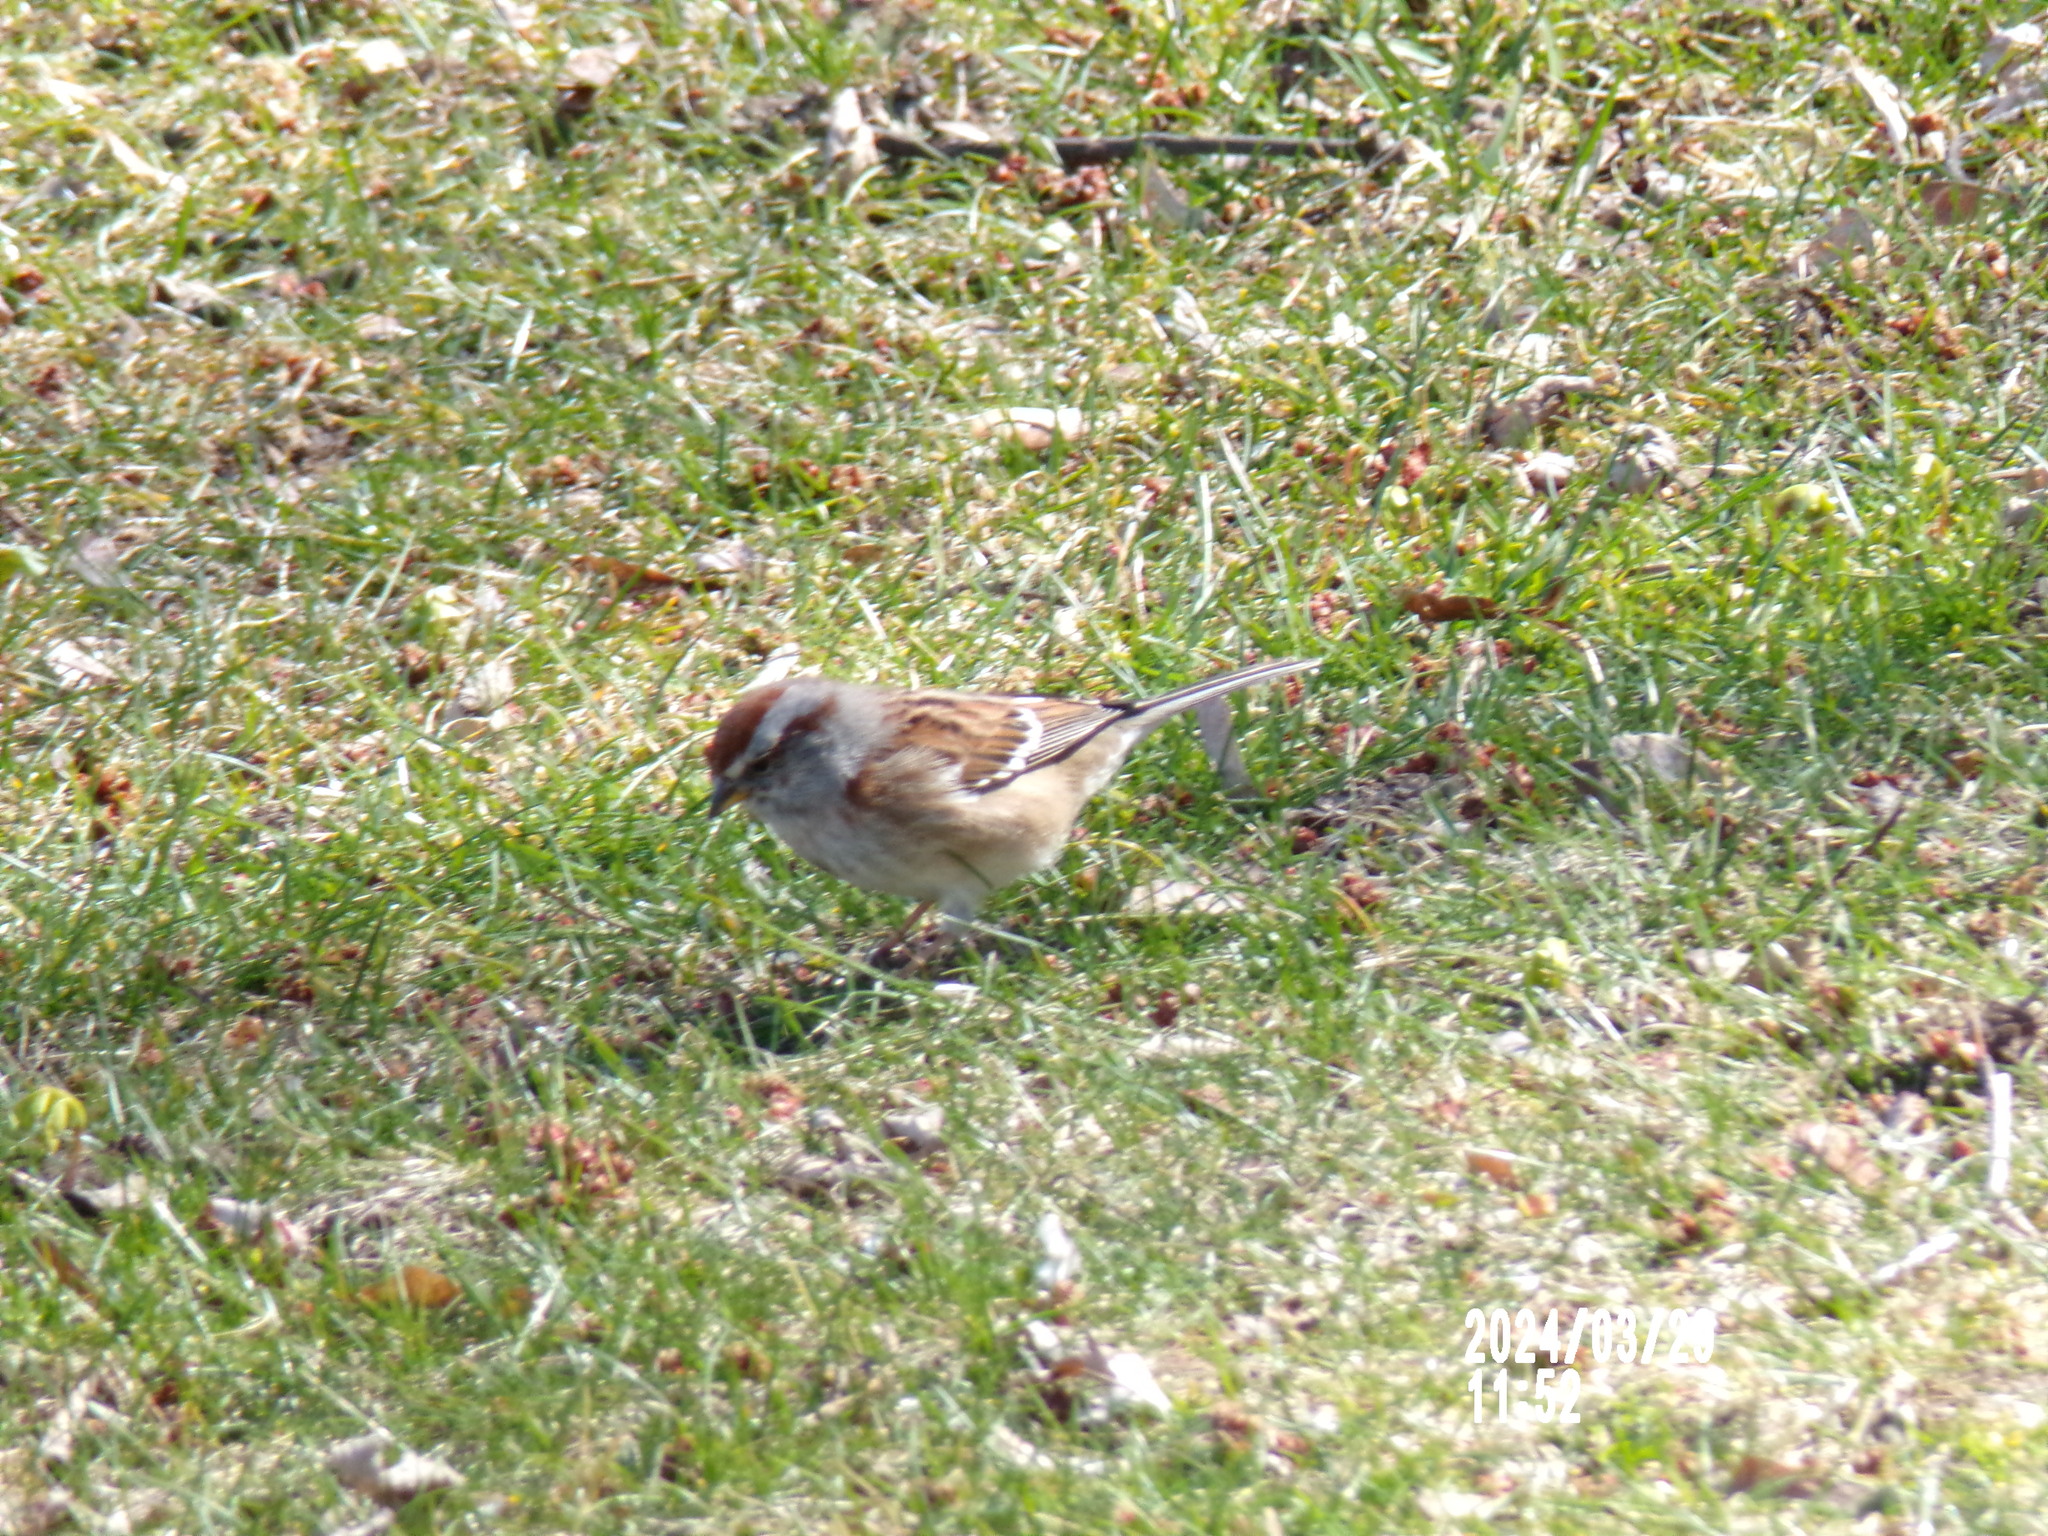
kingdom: Animalia
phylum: Chordata
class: Aves
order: Passeriformes
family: Passerellidae
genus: Spizelloides
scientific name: Spizelloides arborea
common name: American tree sparrow
